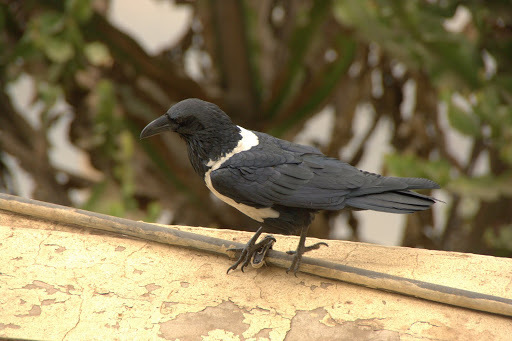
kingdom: Animalia
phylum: Chordata
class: Aves
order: Passeriformes
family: Corvidae
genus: Corvus
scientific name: Corvus albus
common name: Pied crow
